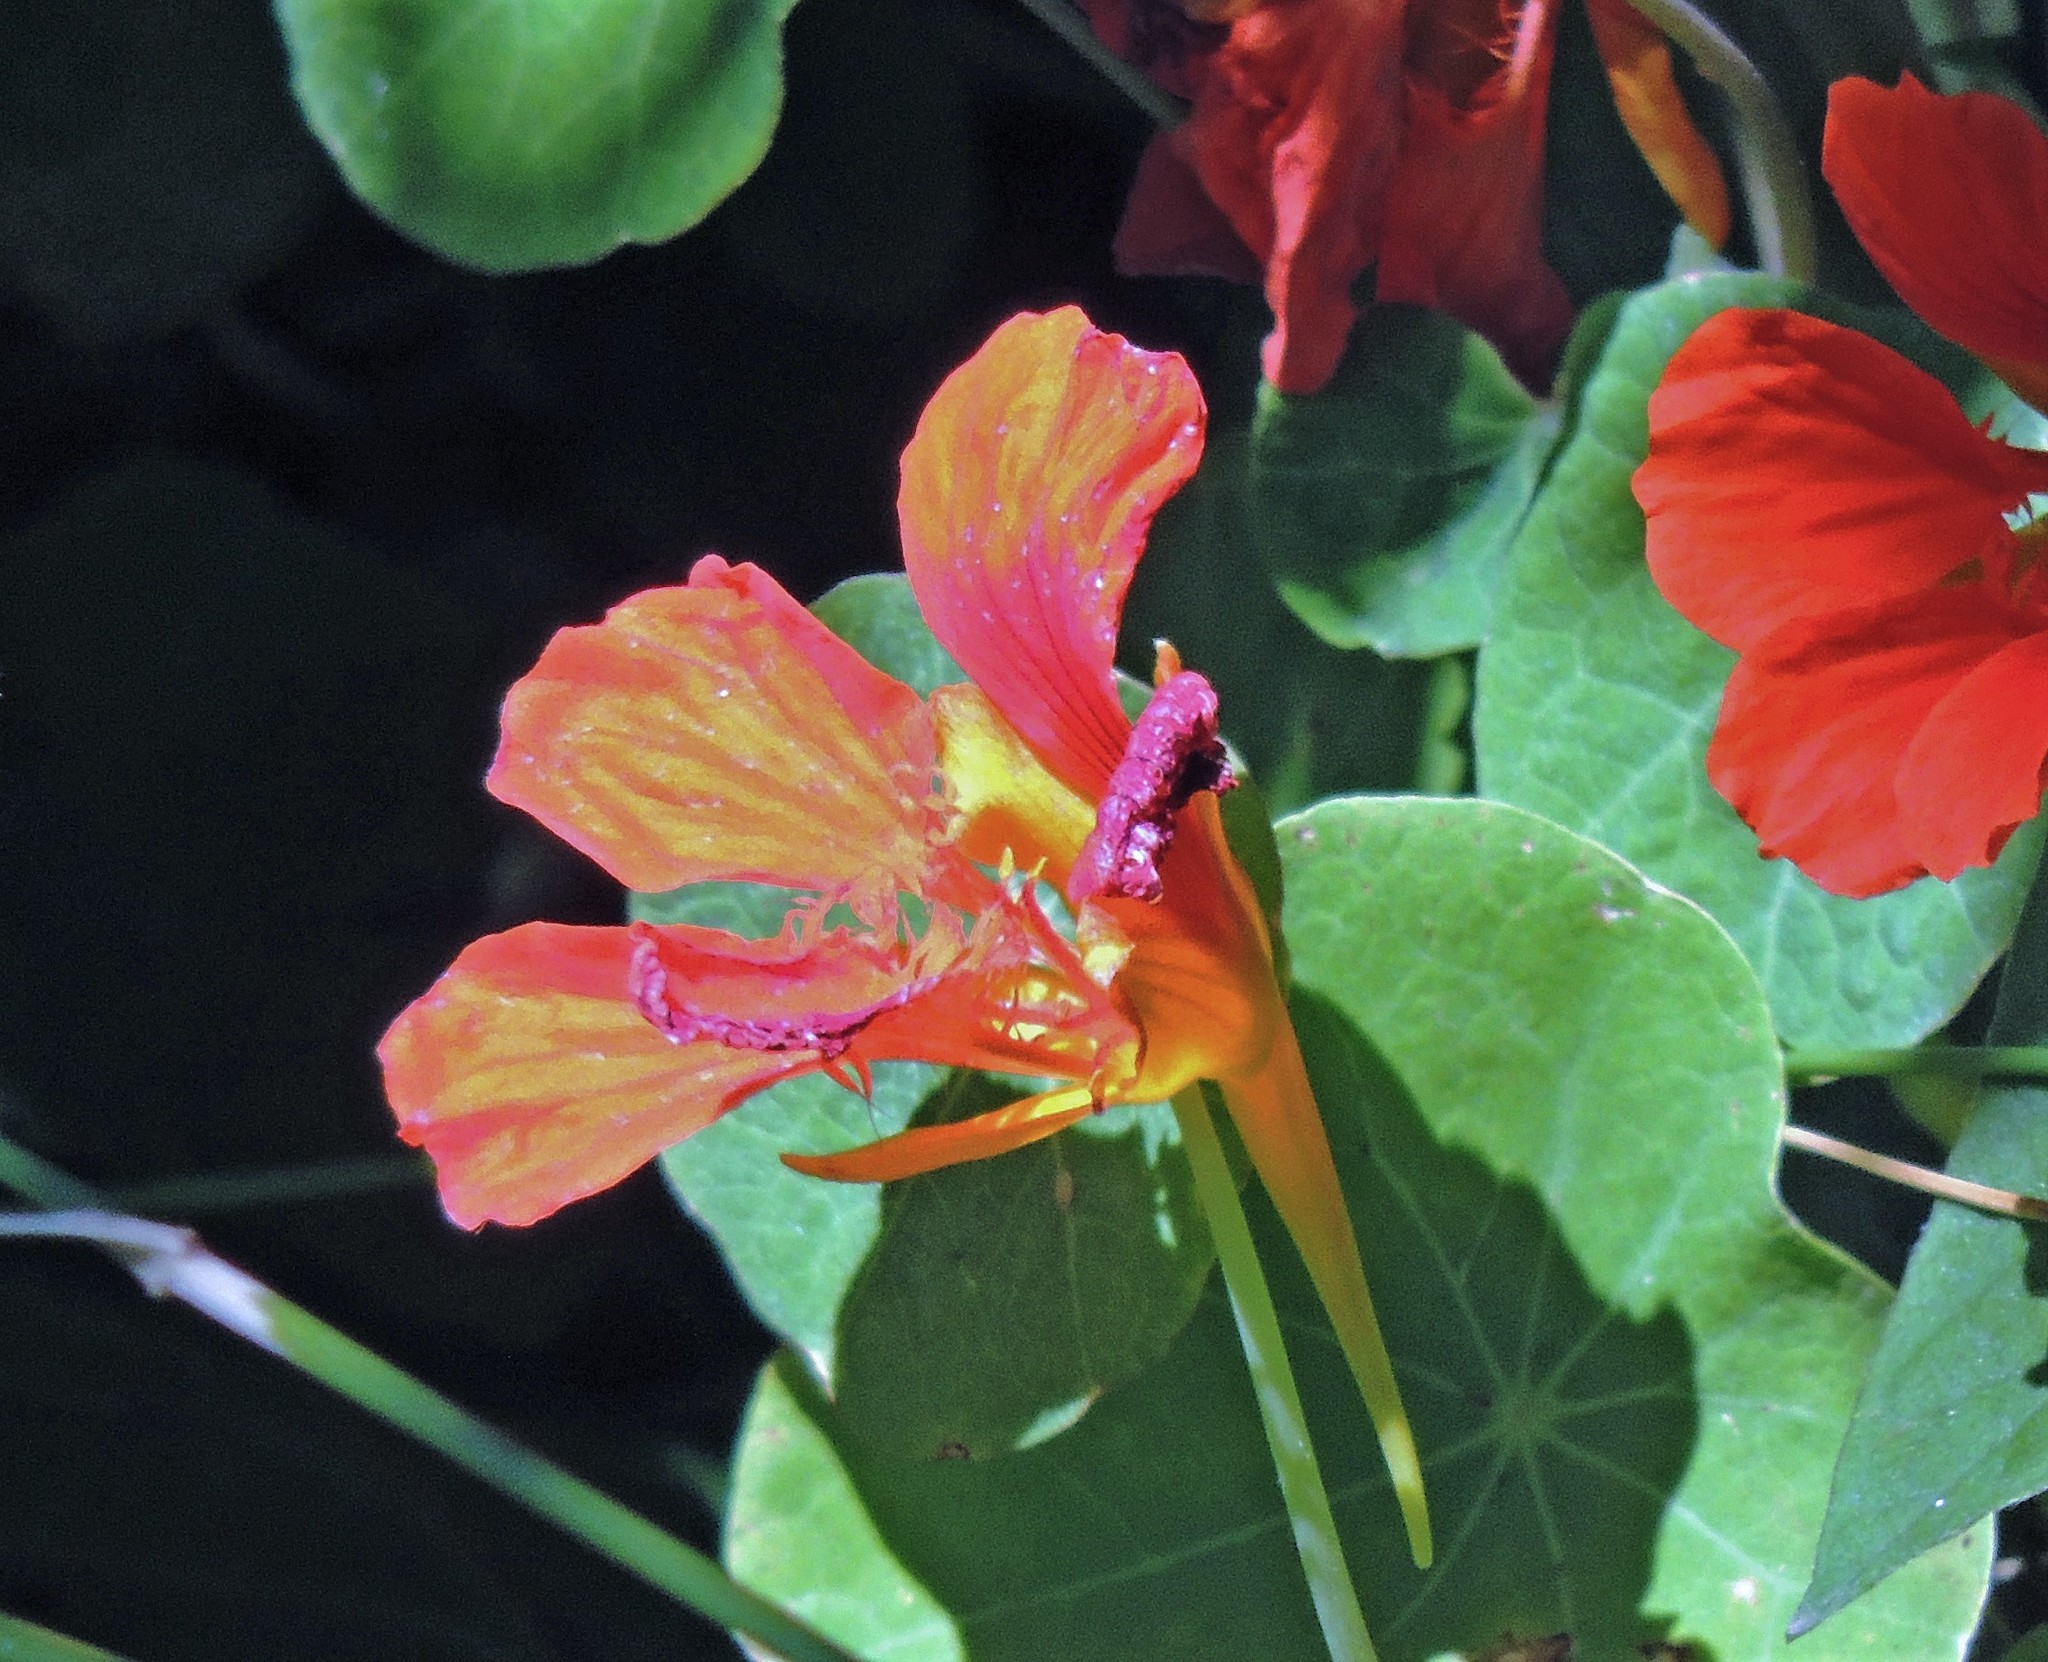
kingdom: Plantae
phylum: Tracheophyta
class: Magnoliopsida
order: Brassicales
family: Tropaeolaceae
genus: Tropaeolum
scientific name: Tropaeolum majus
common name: Nasturtium
